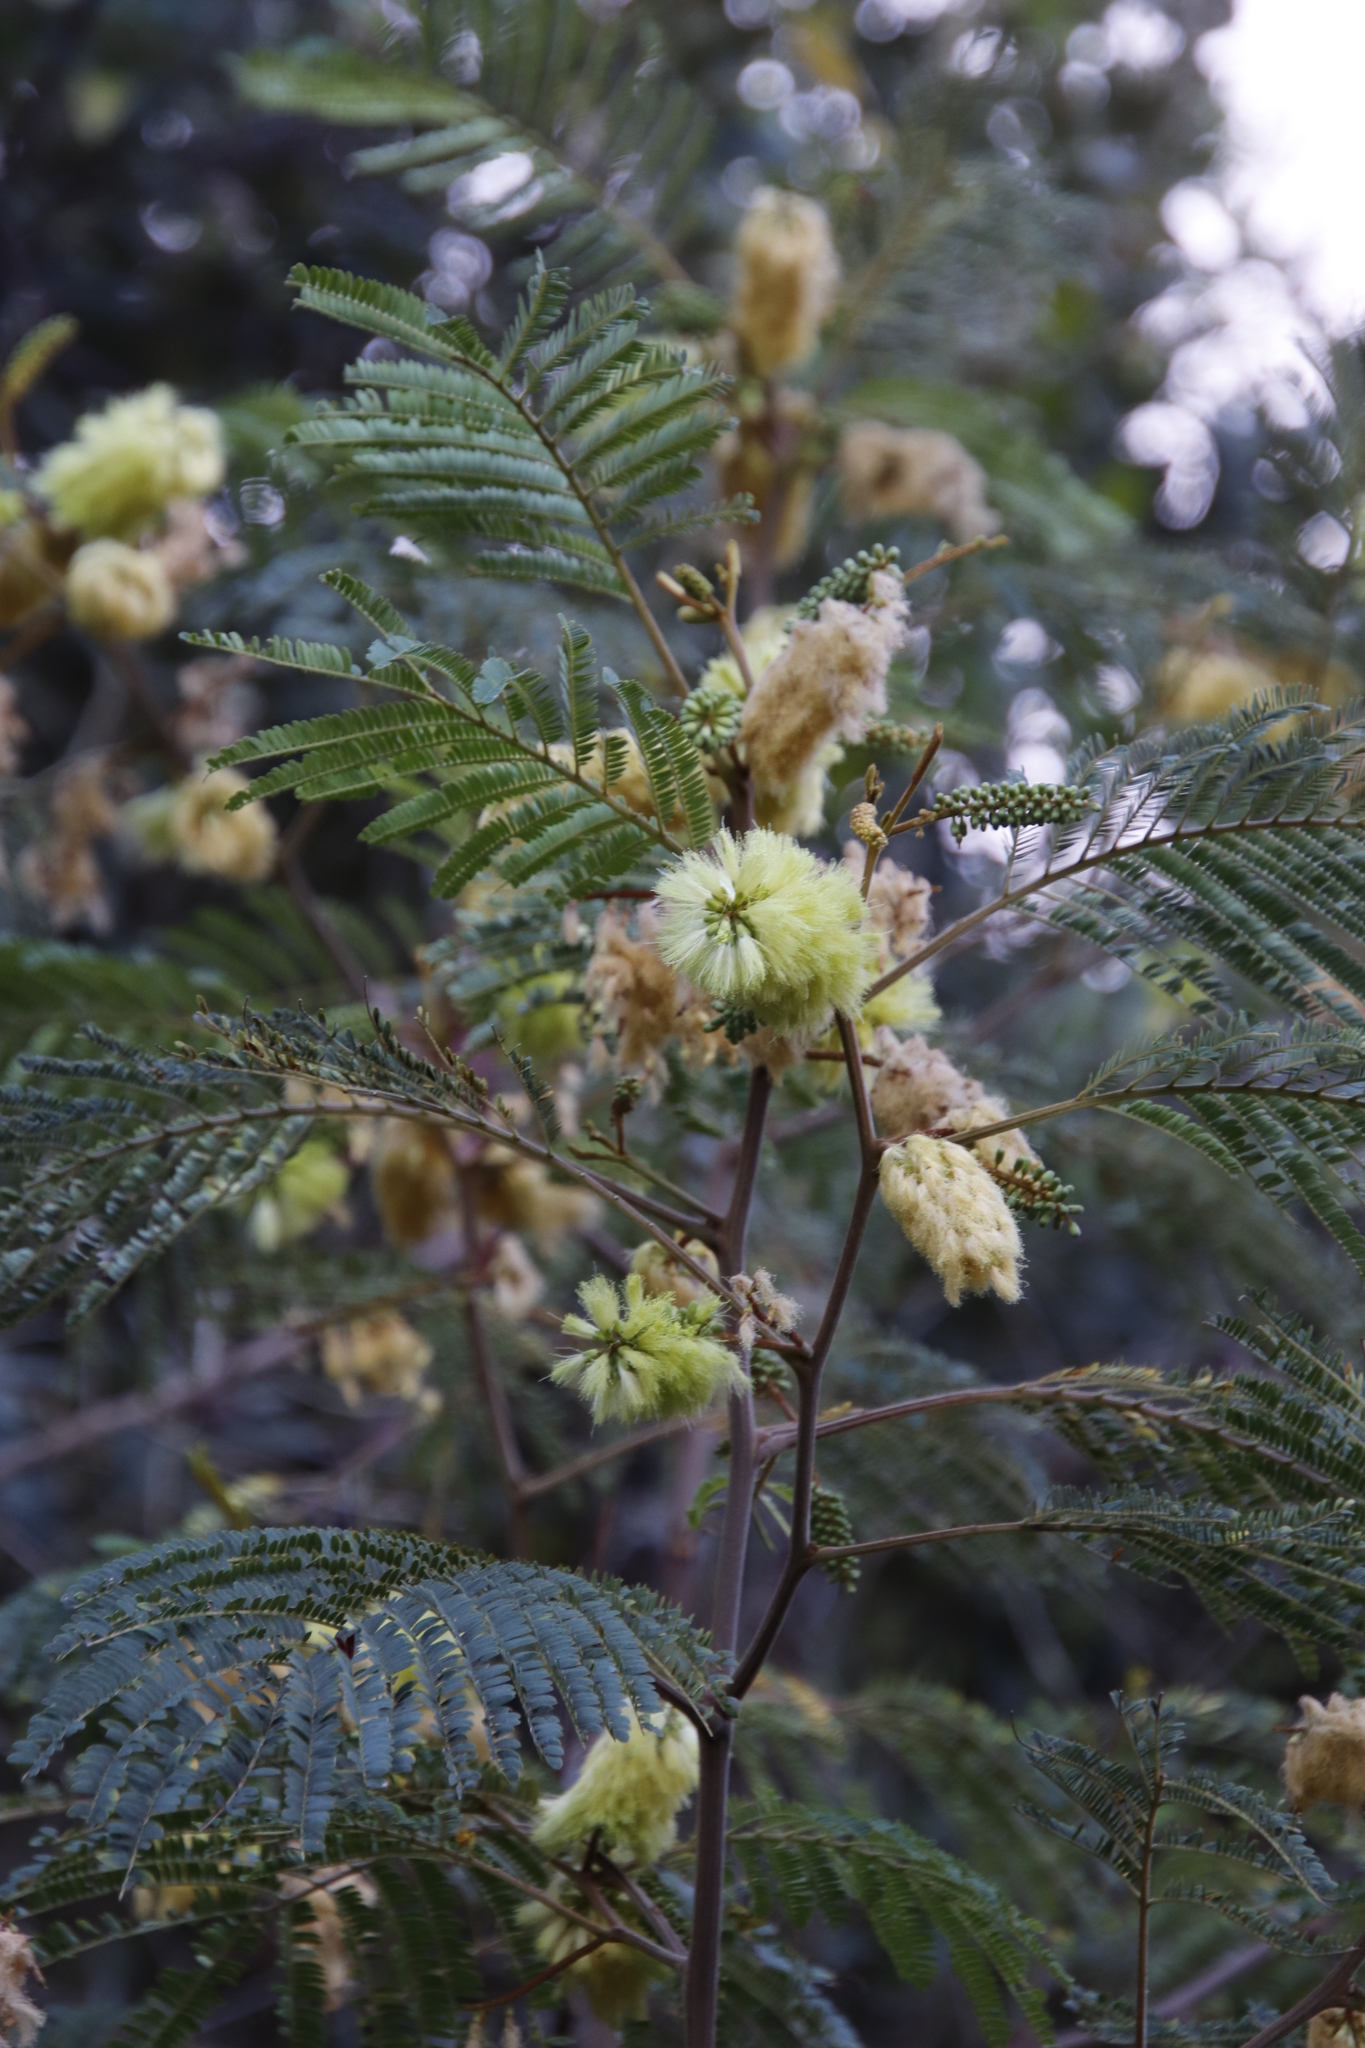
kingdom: Plantae
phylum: Tracheophyta
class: Magnoliopsida
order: Fabales
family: Fabaceae
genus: Paraserianthes
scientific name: Paraserianthes lophantha
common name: Plume albizia
